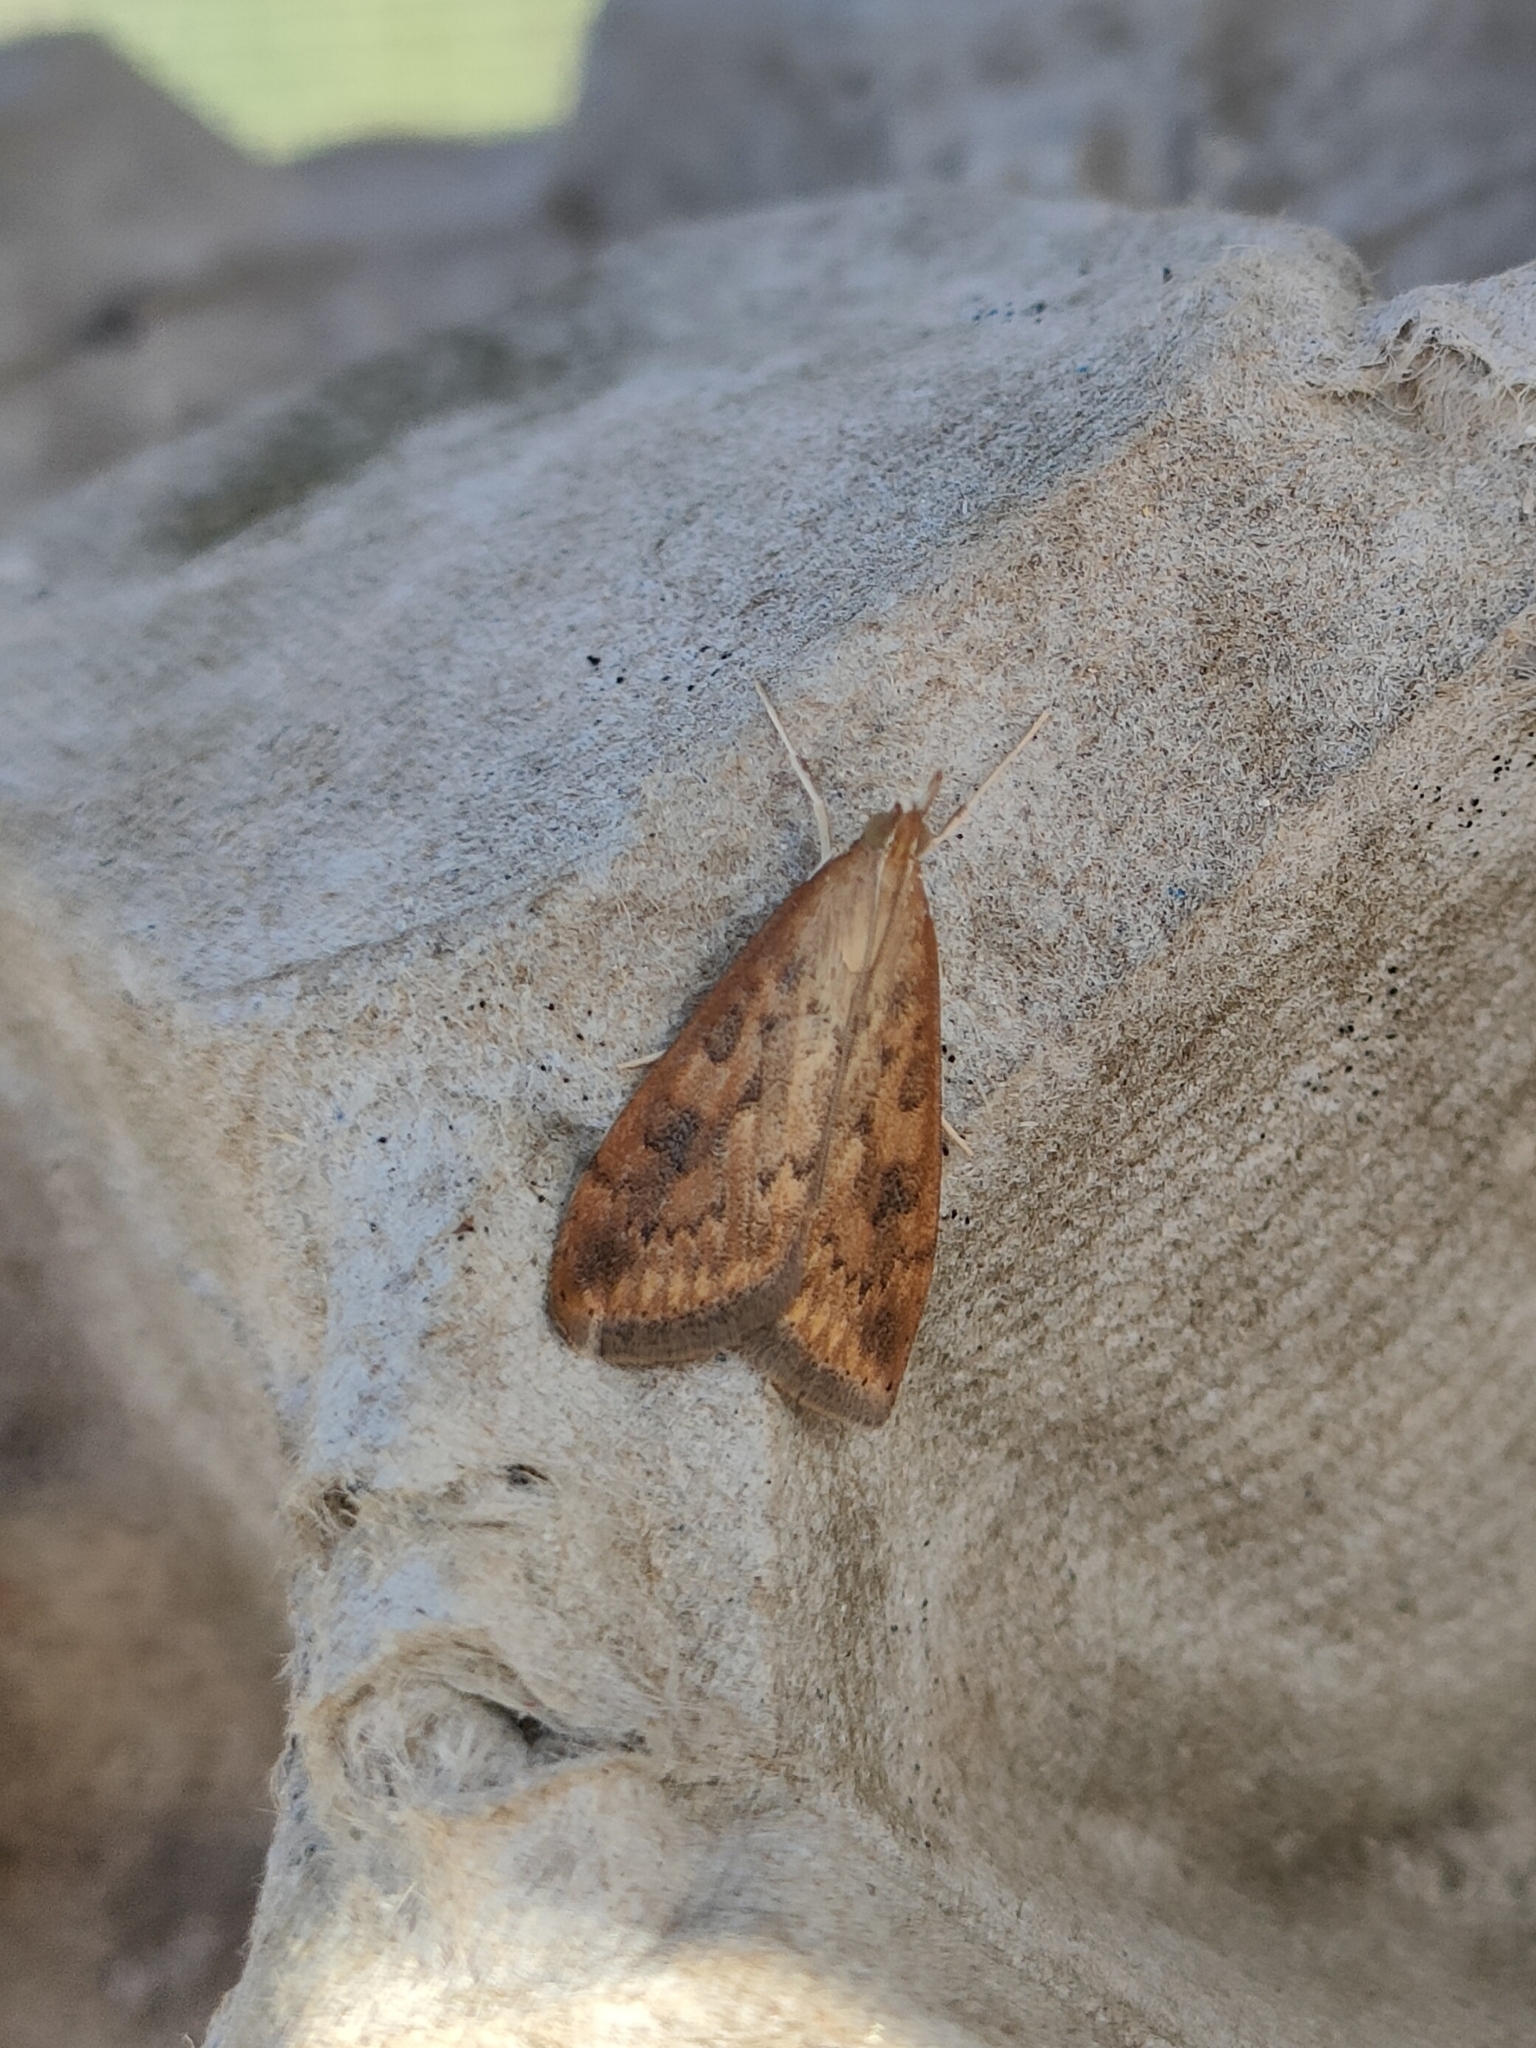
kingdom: Animalia
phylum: Arthropoda
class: Insecta
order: Lepidoptera
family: Crambidae
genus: Udea
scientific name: Udea ferrugalis
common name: Rusty dot
